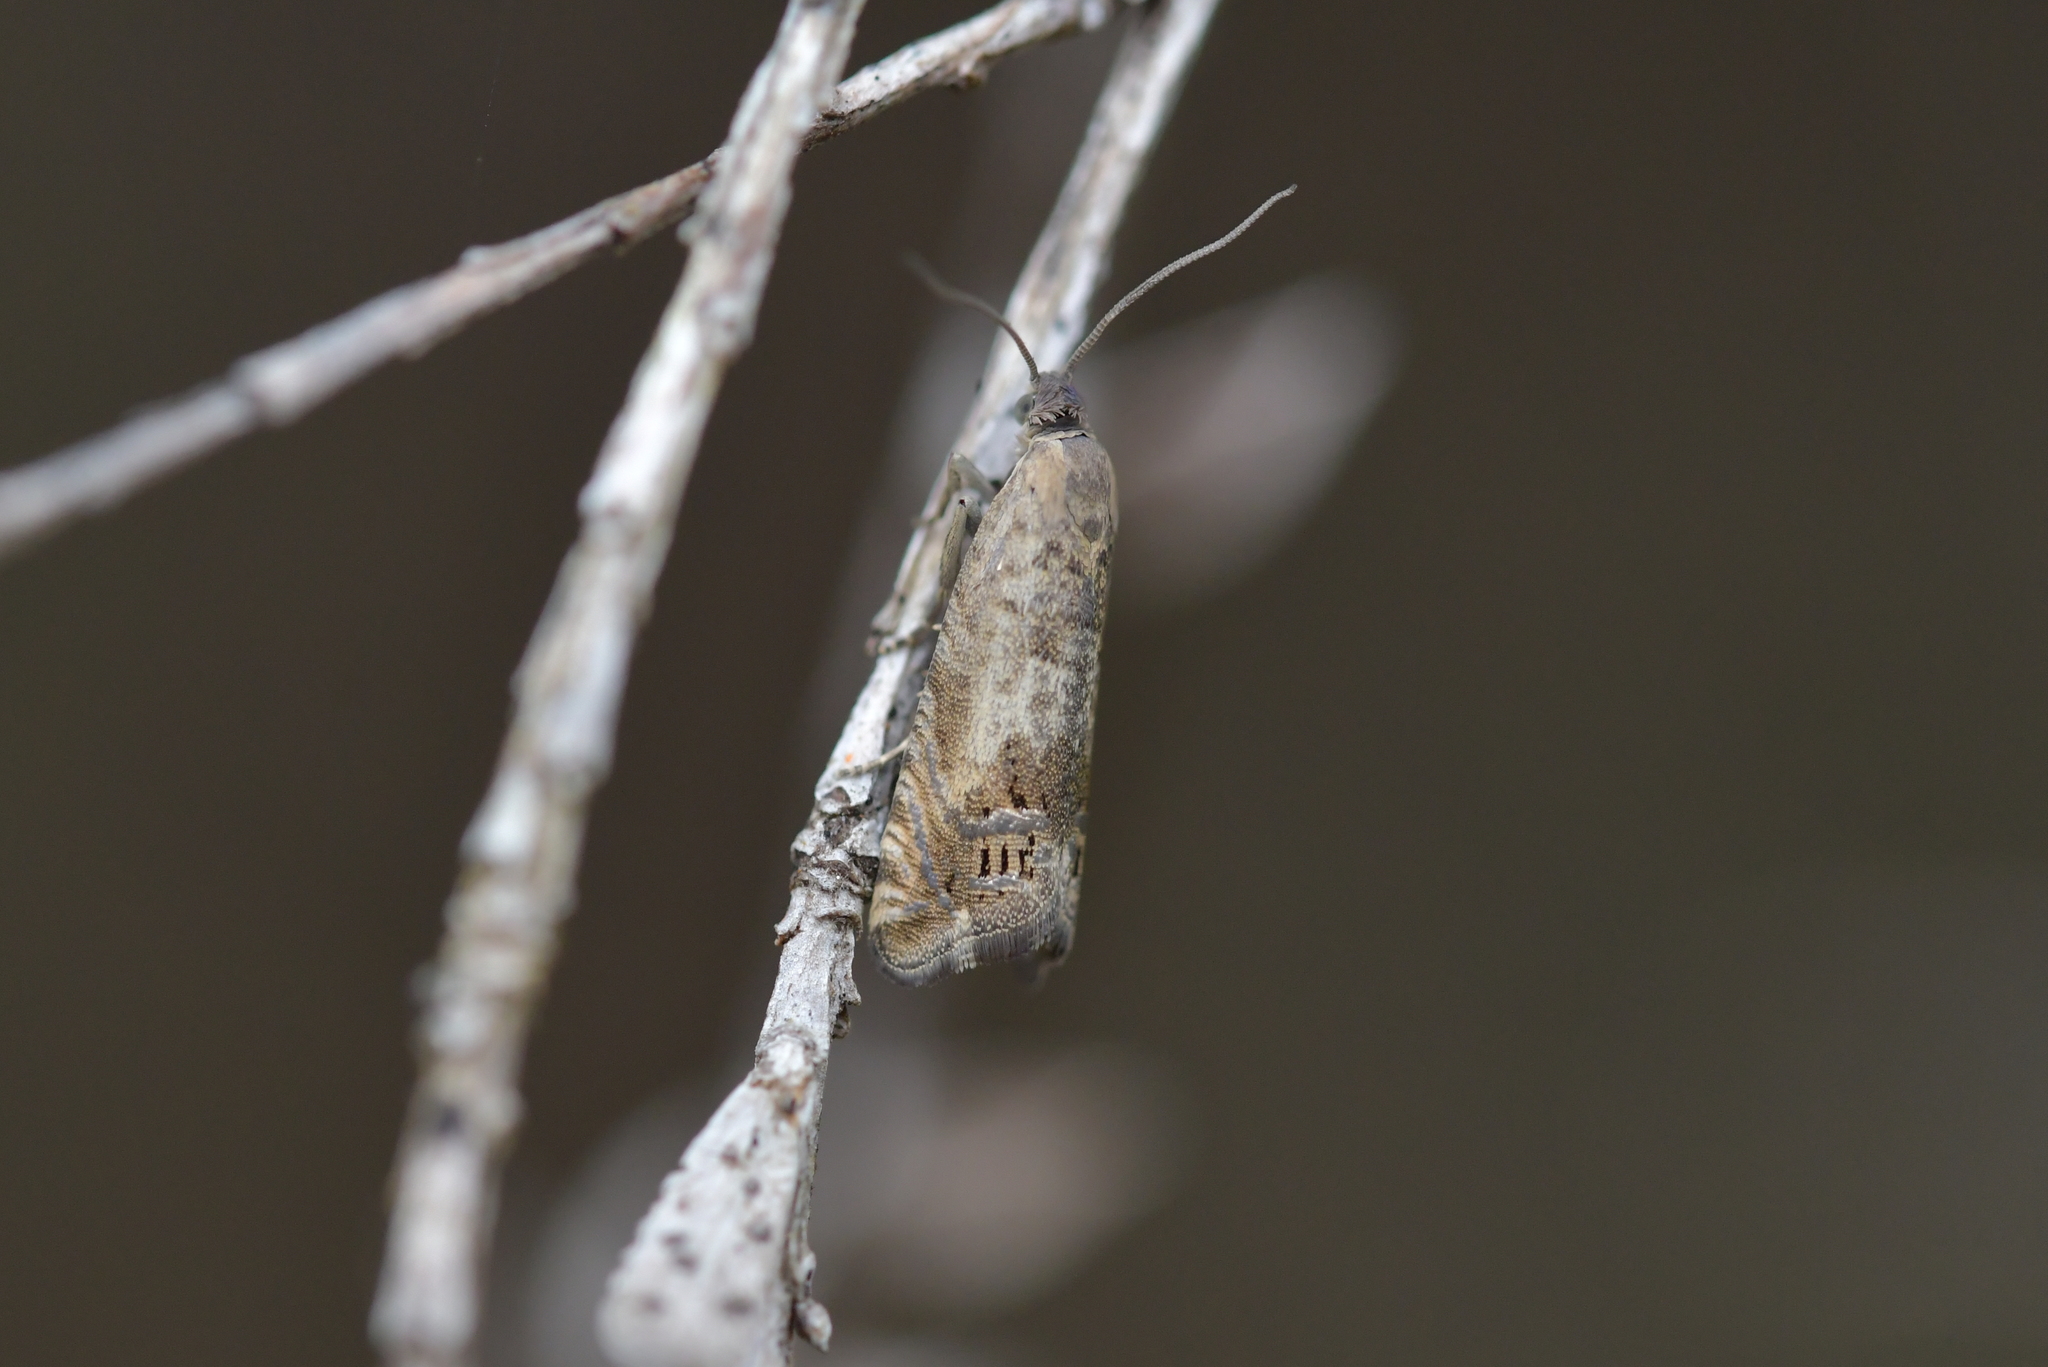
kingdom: Animalia
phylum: Arthropoda
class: Insecta
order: Lepidoptera
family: Tortricidae
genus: Cydia
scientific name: Cydia succedana
